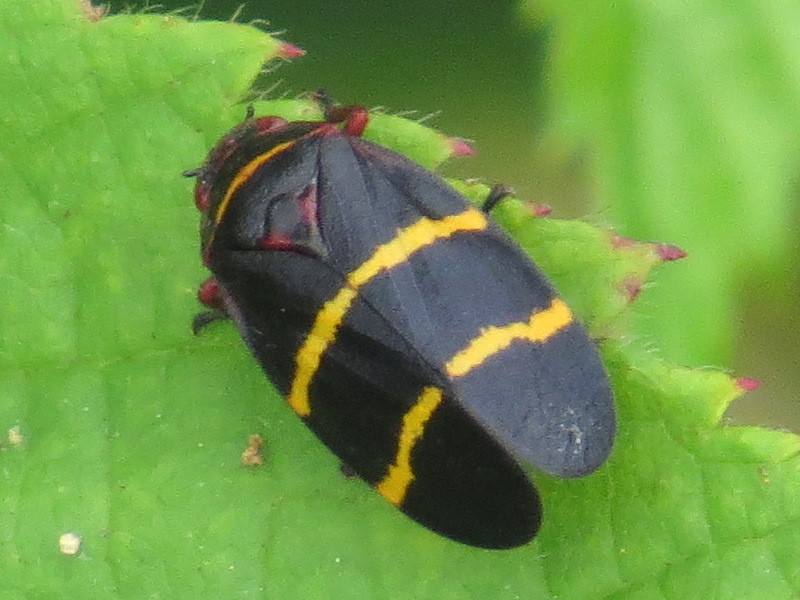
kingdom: Animalia
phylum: Arthropoda
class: Insecta
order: Hemiptera
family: Cercopidae
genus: Prosapia
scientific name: Prosapia bicincta
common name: Twolined spittlebug
